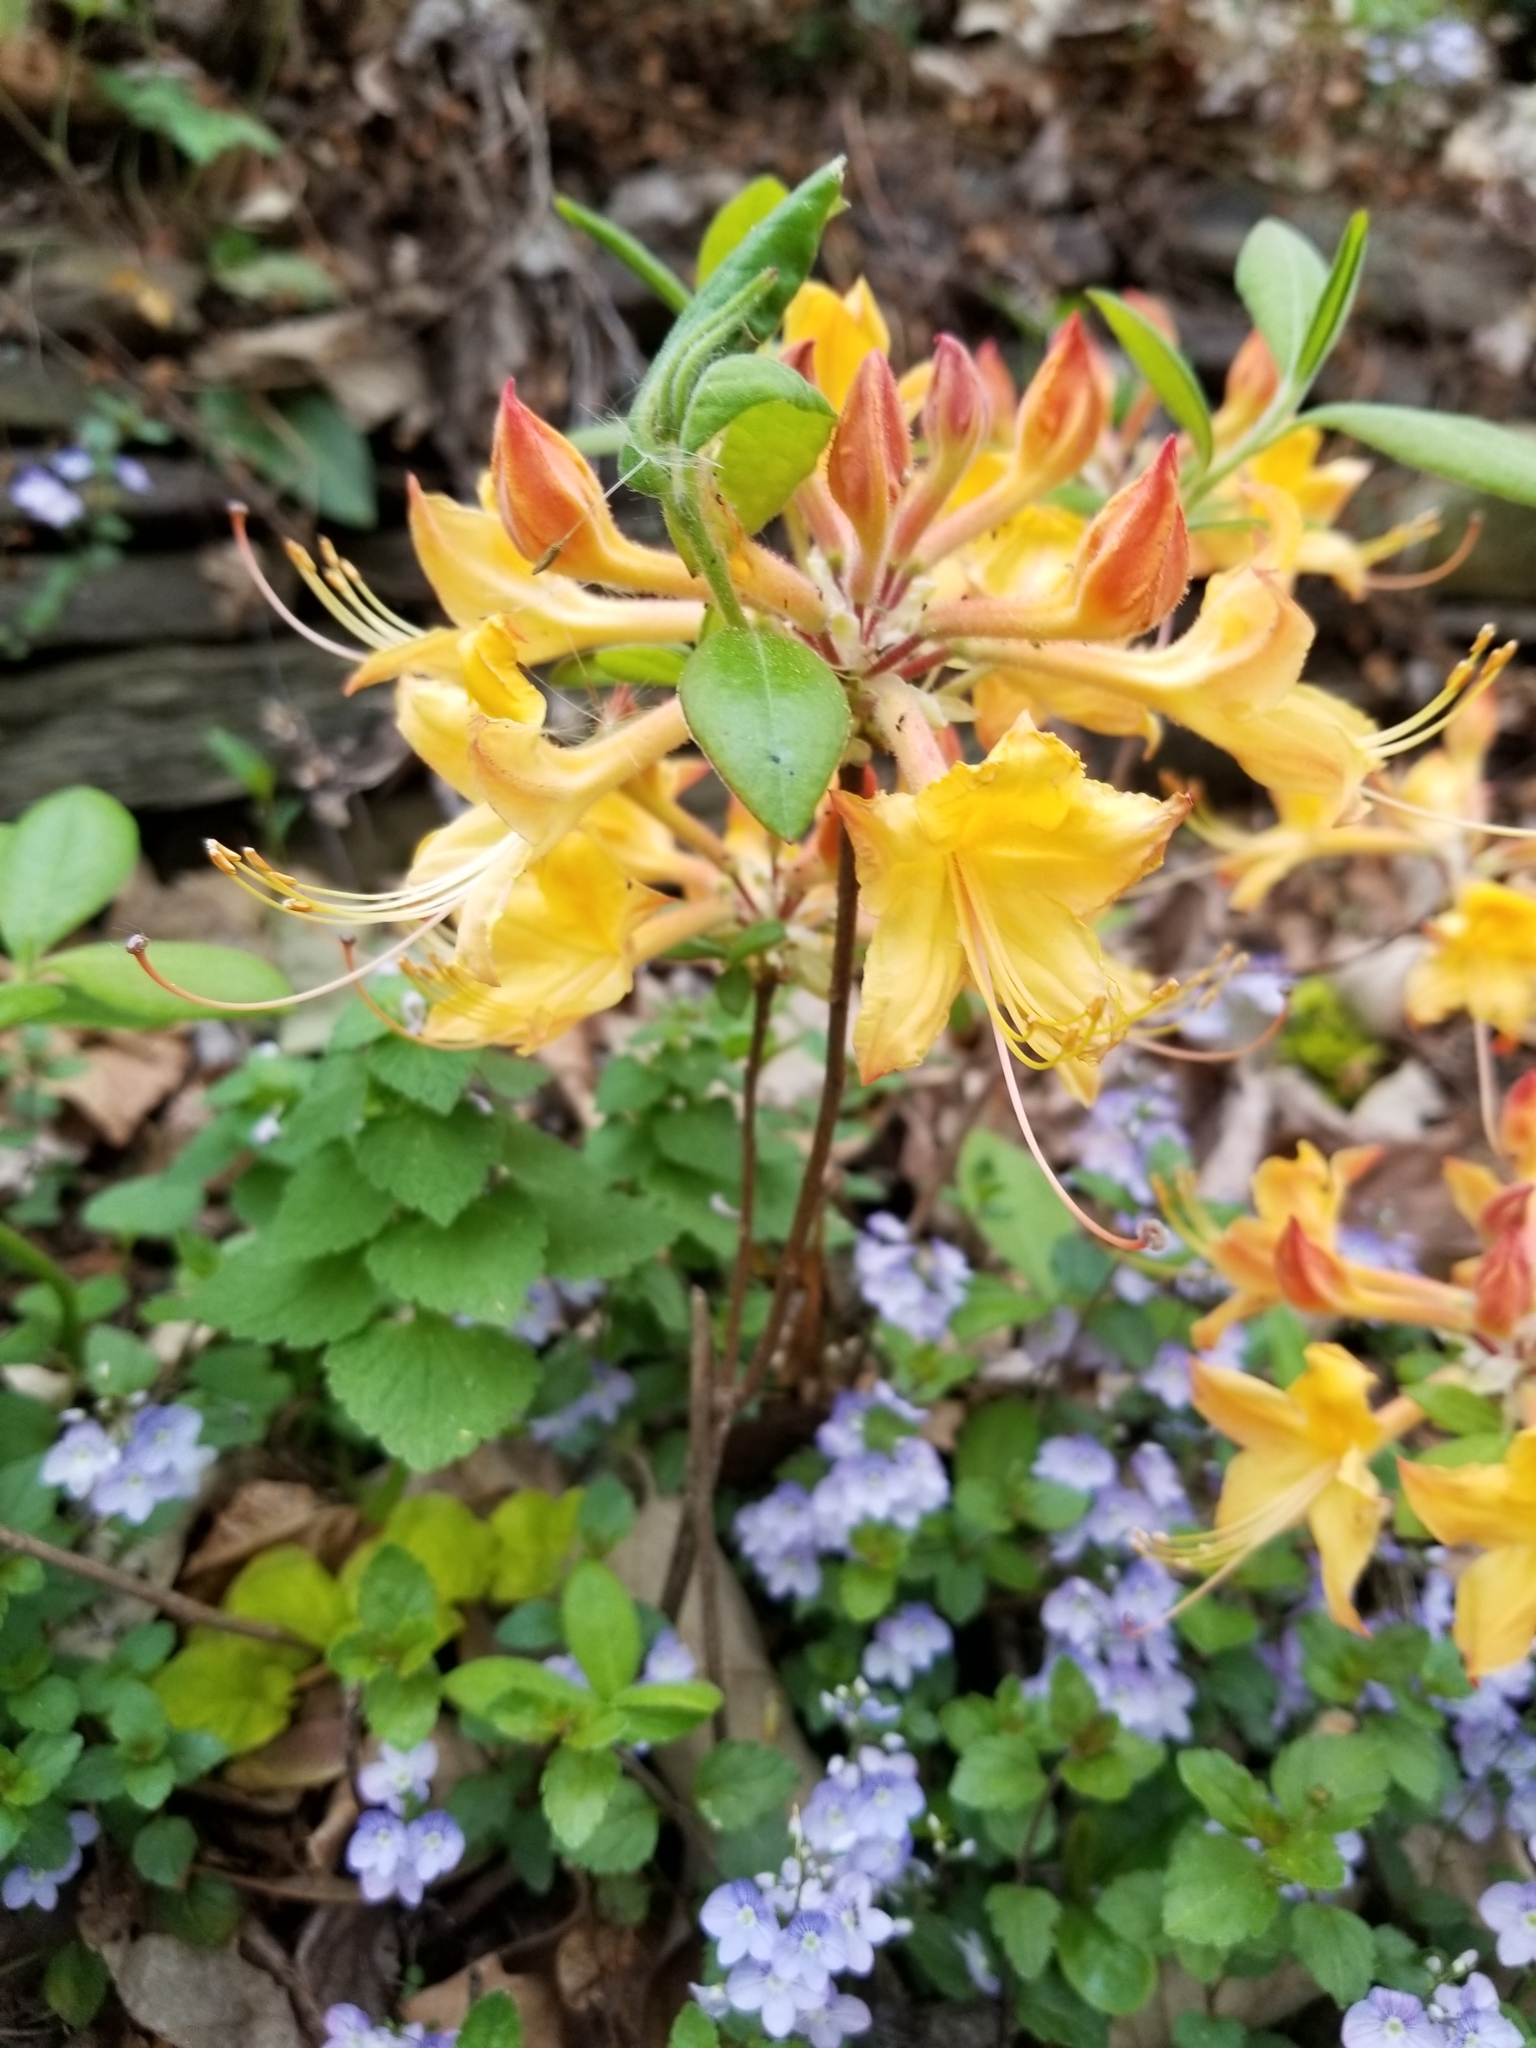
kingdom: Plantae
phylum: Tracheophyta
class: Magnoliopsida
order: Ericales
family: Ericaceae
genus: Rhododendron
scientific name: Rhododendron calendulaceum
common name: Flame azalea
